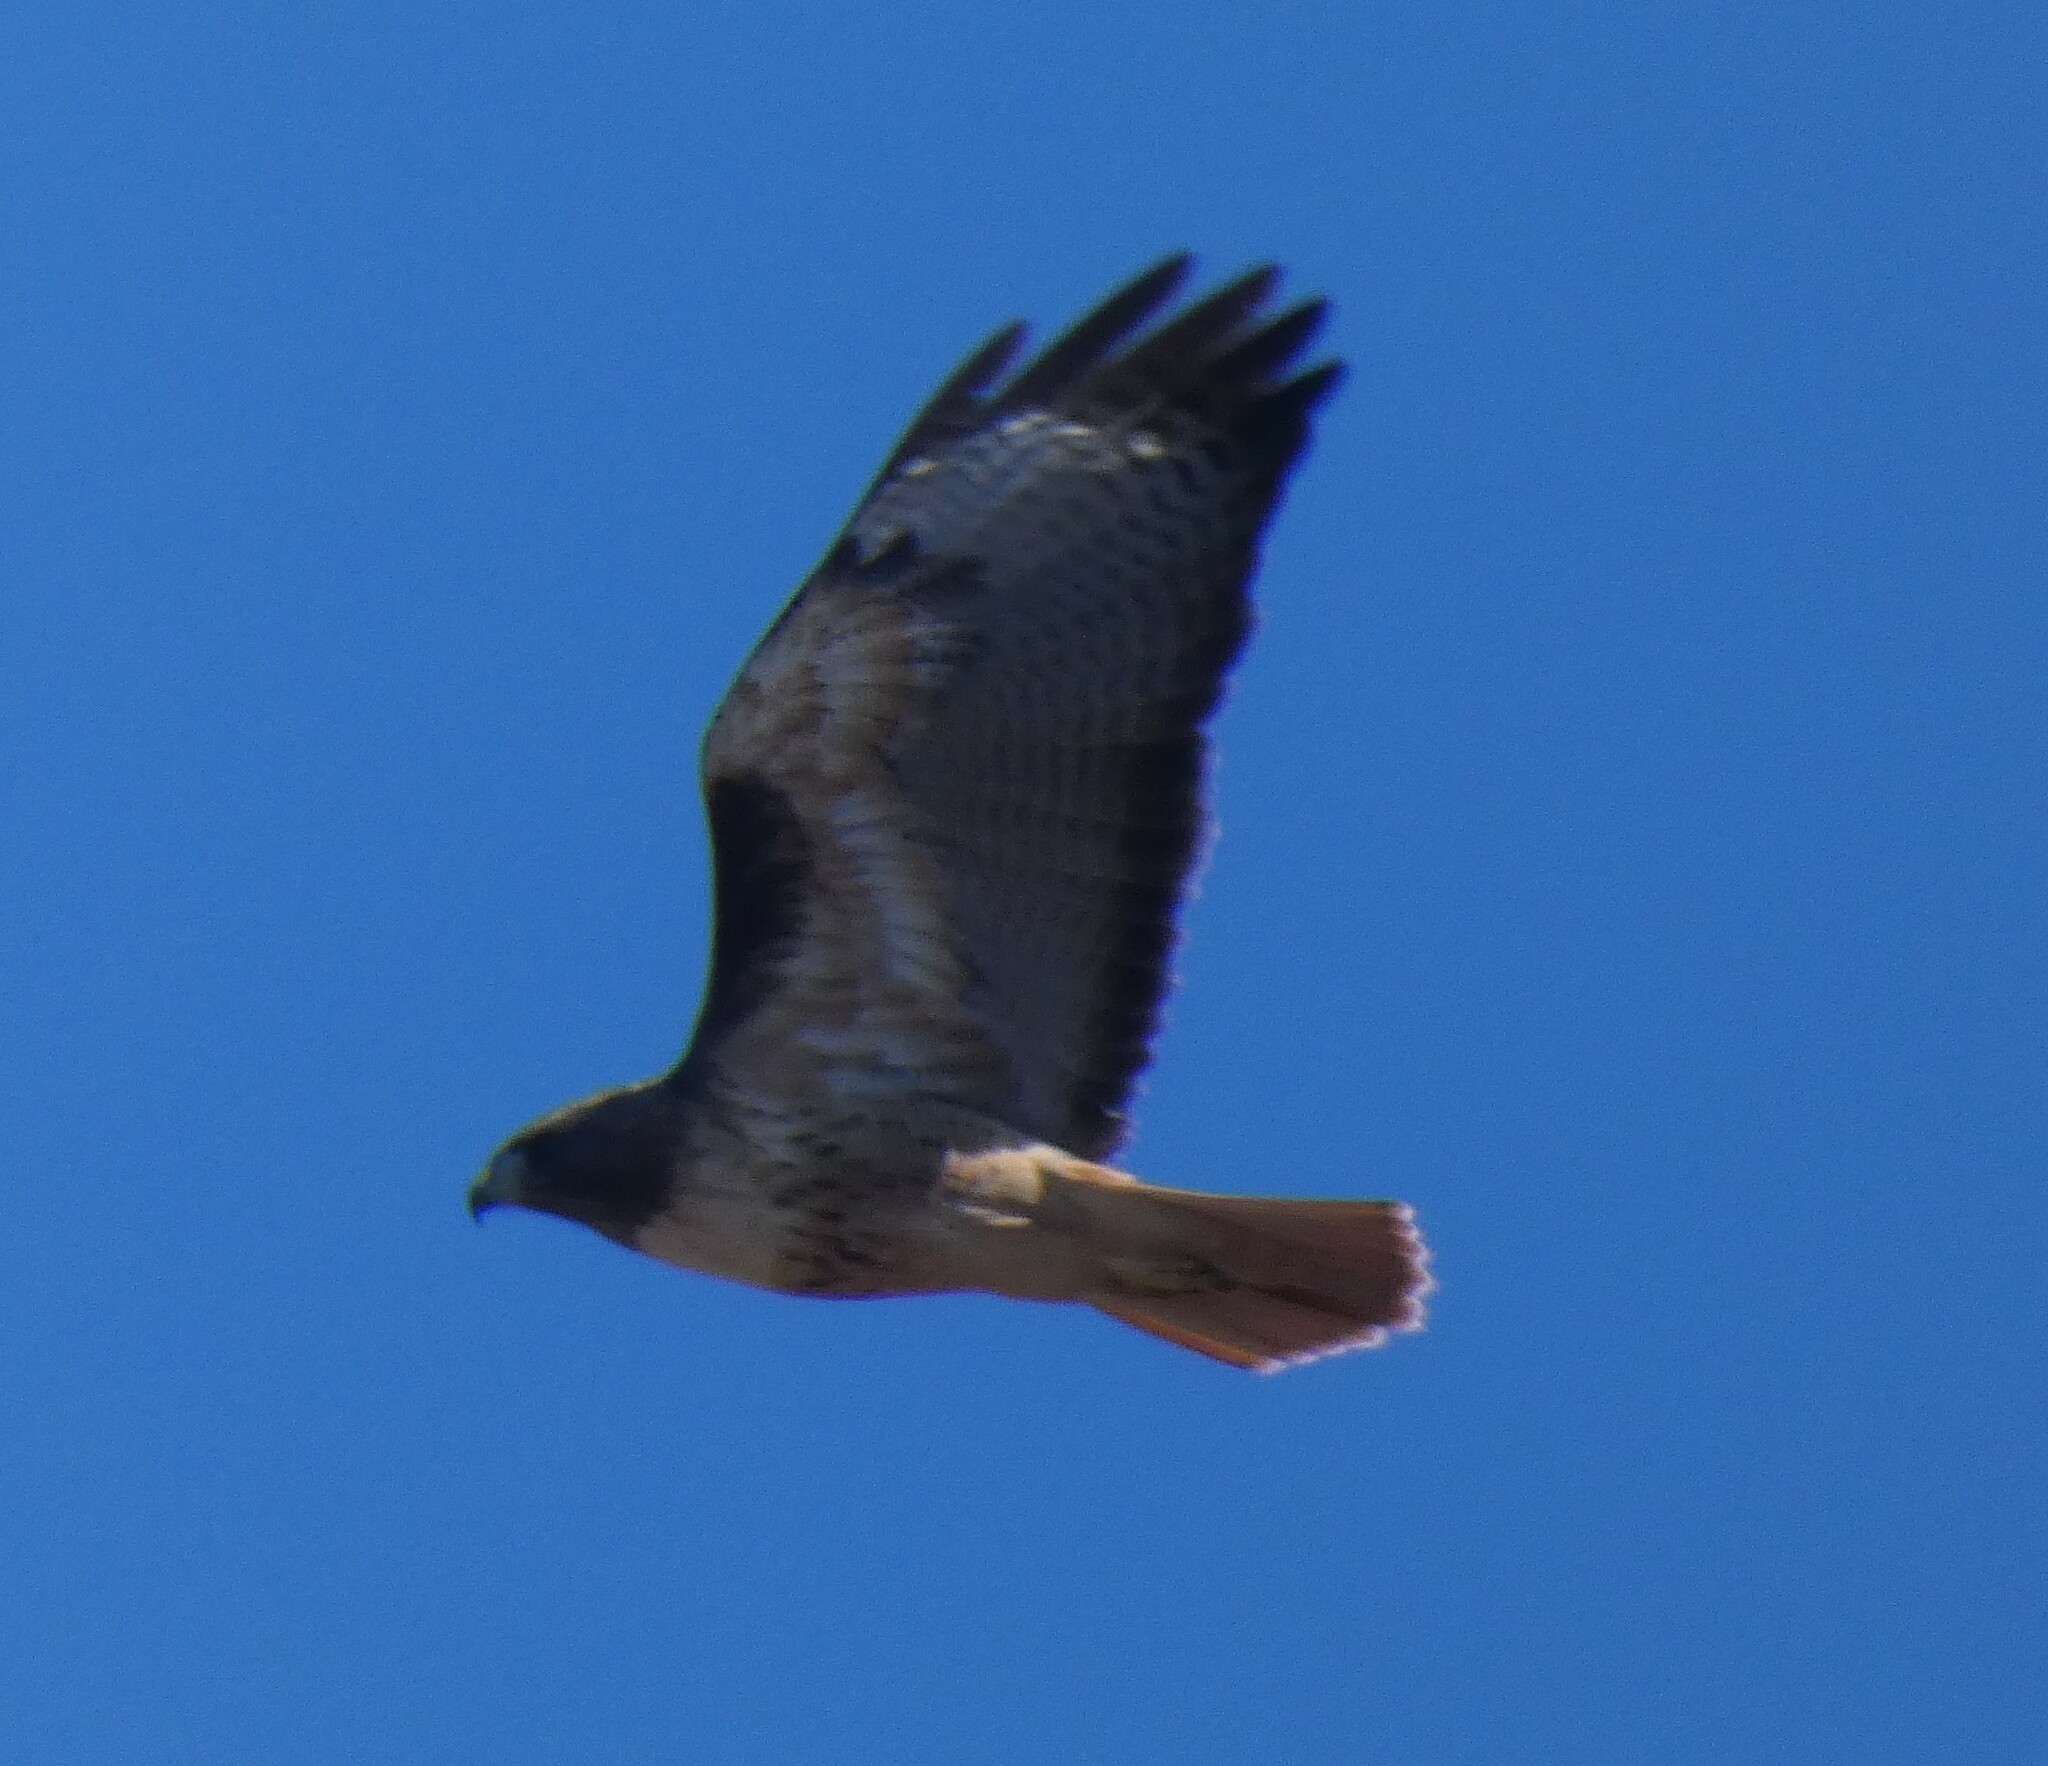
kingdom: Animalia
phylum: Chordata
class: Aves
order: Accipitriformes
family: Accipitridae
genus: Buteo
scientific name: Buteo jamaicensis
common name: Red-tailed hawk
